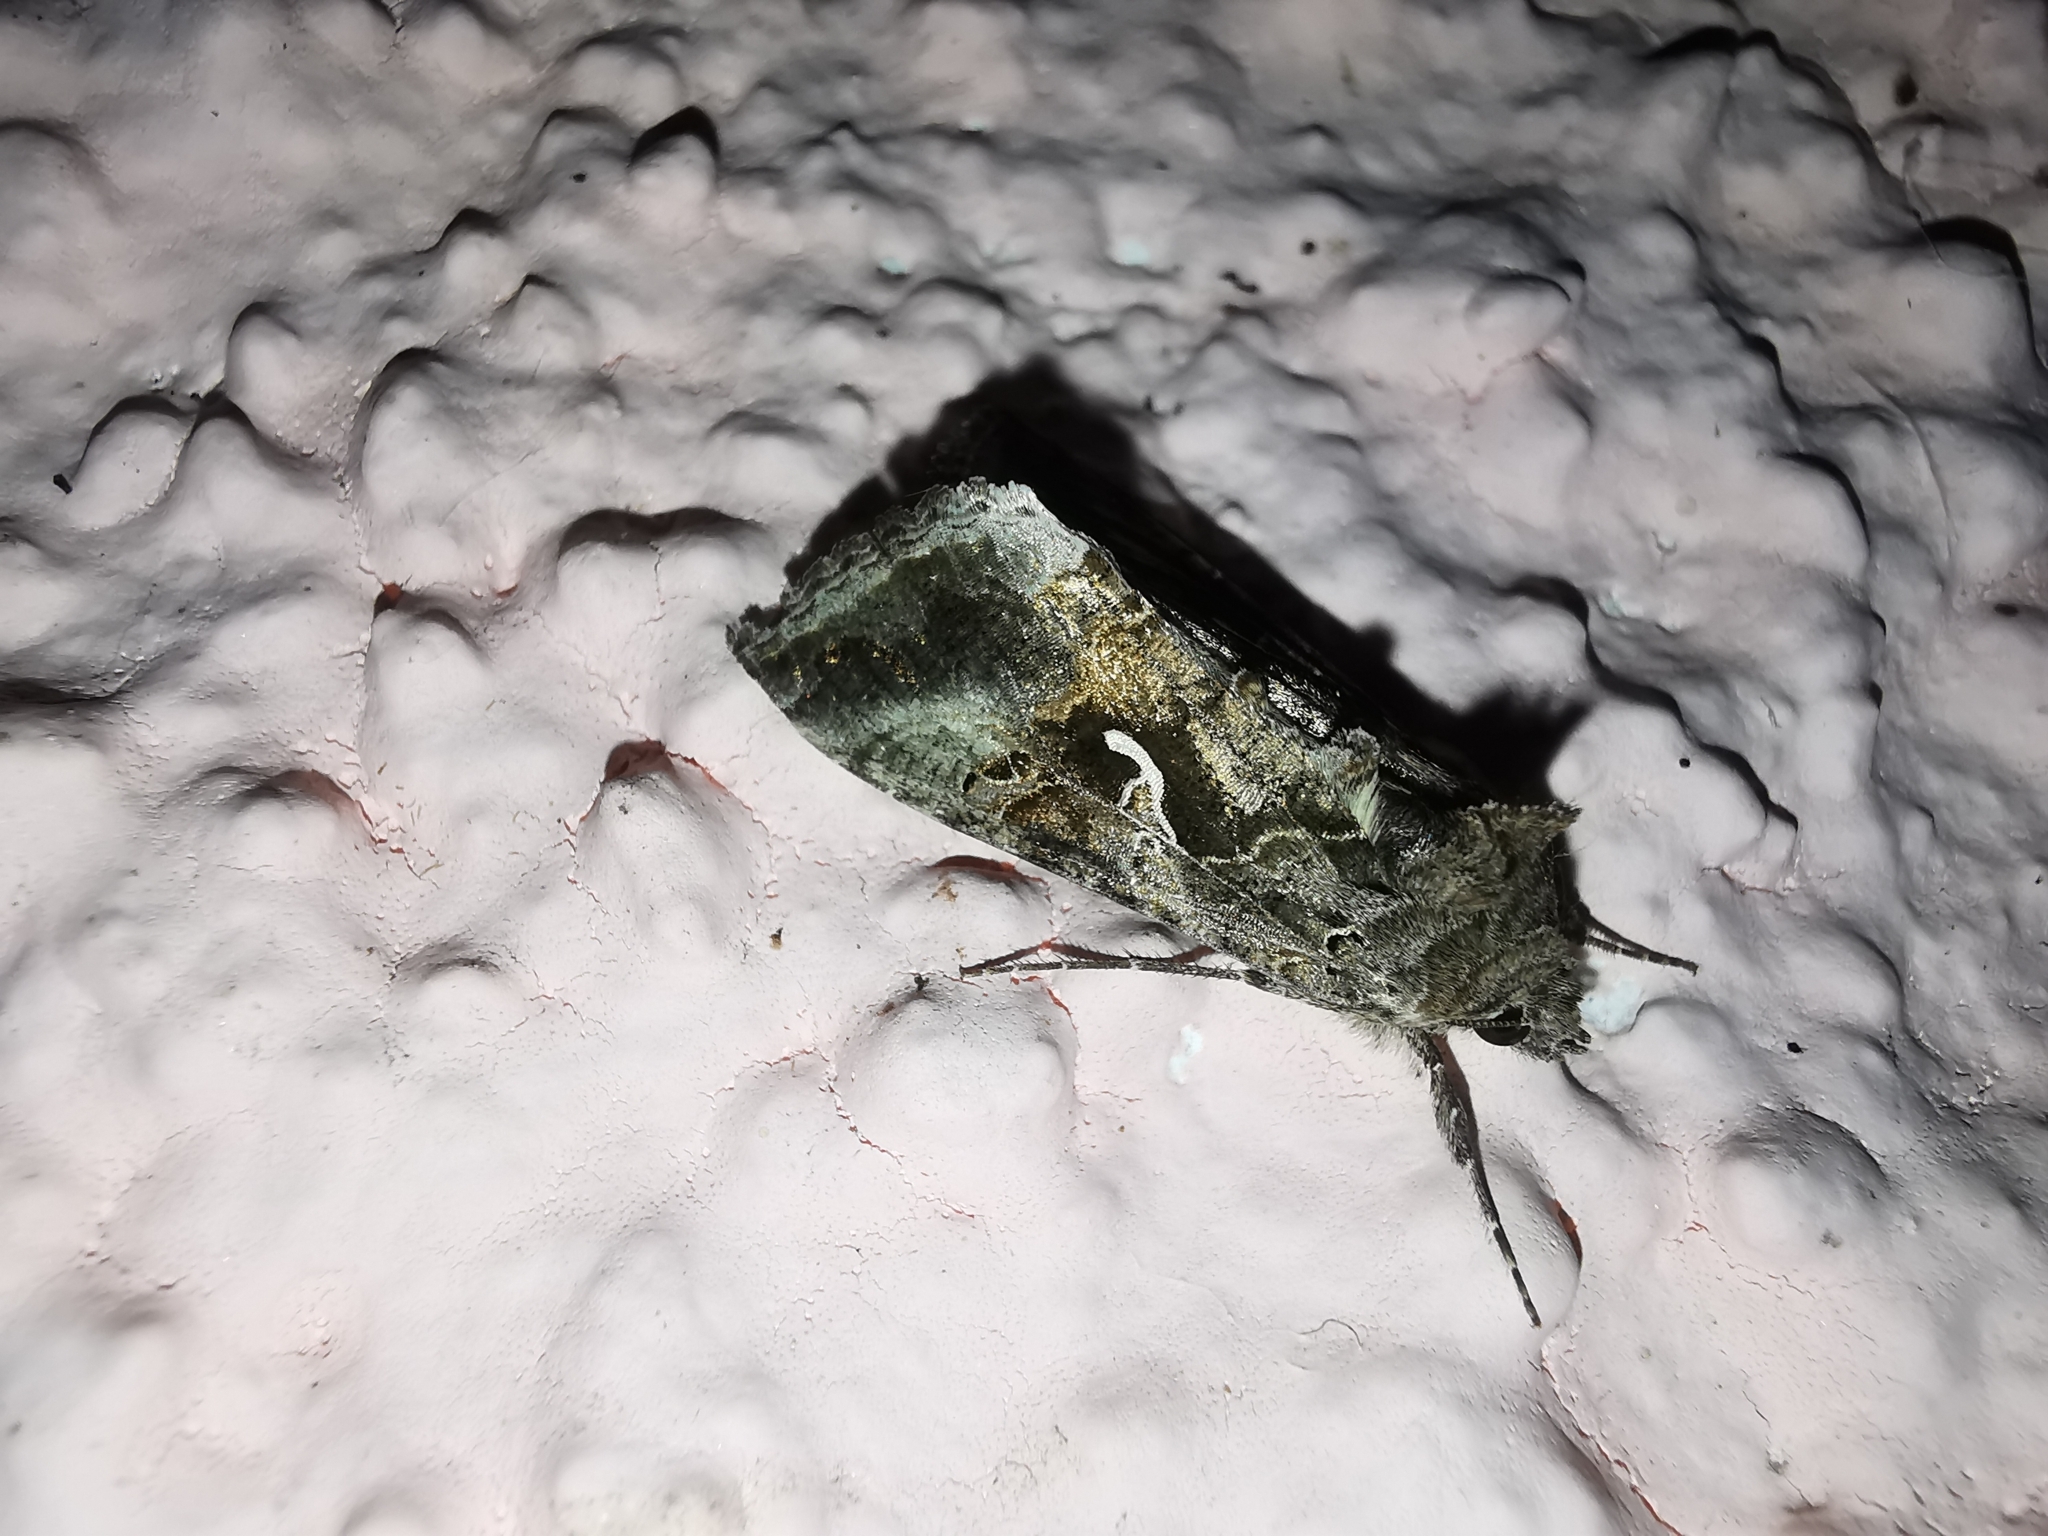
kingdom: Animalia
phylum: Arthropoda
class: Insecta
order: Lepidoptera
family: Noctuidae
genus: Autographa
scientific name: Autographa gamma
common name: Silver y
